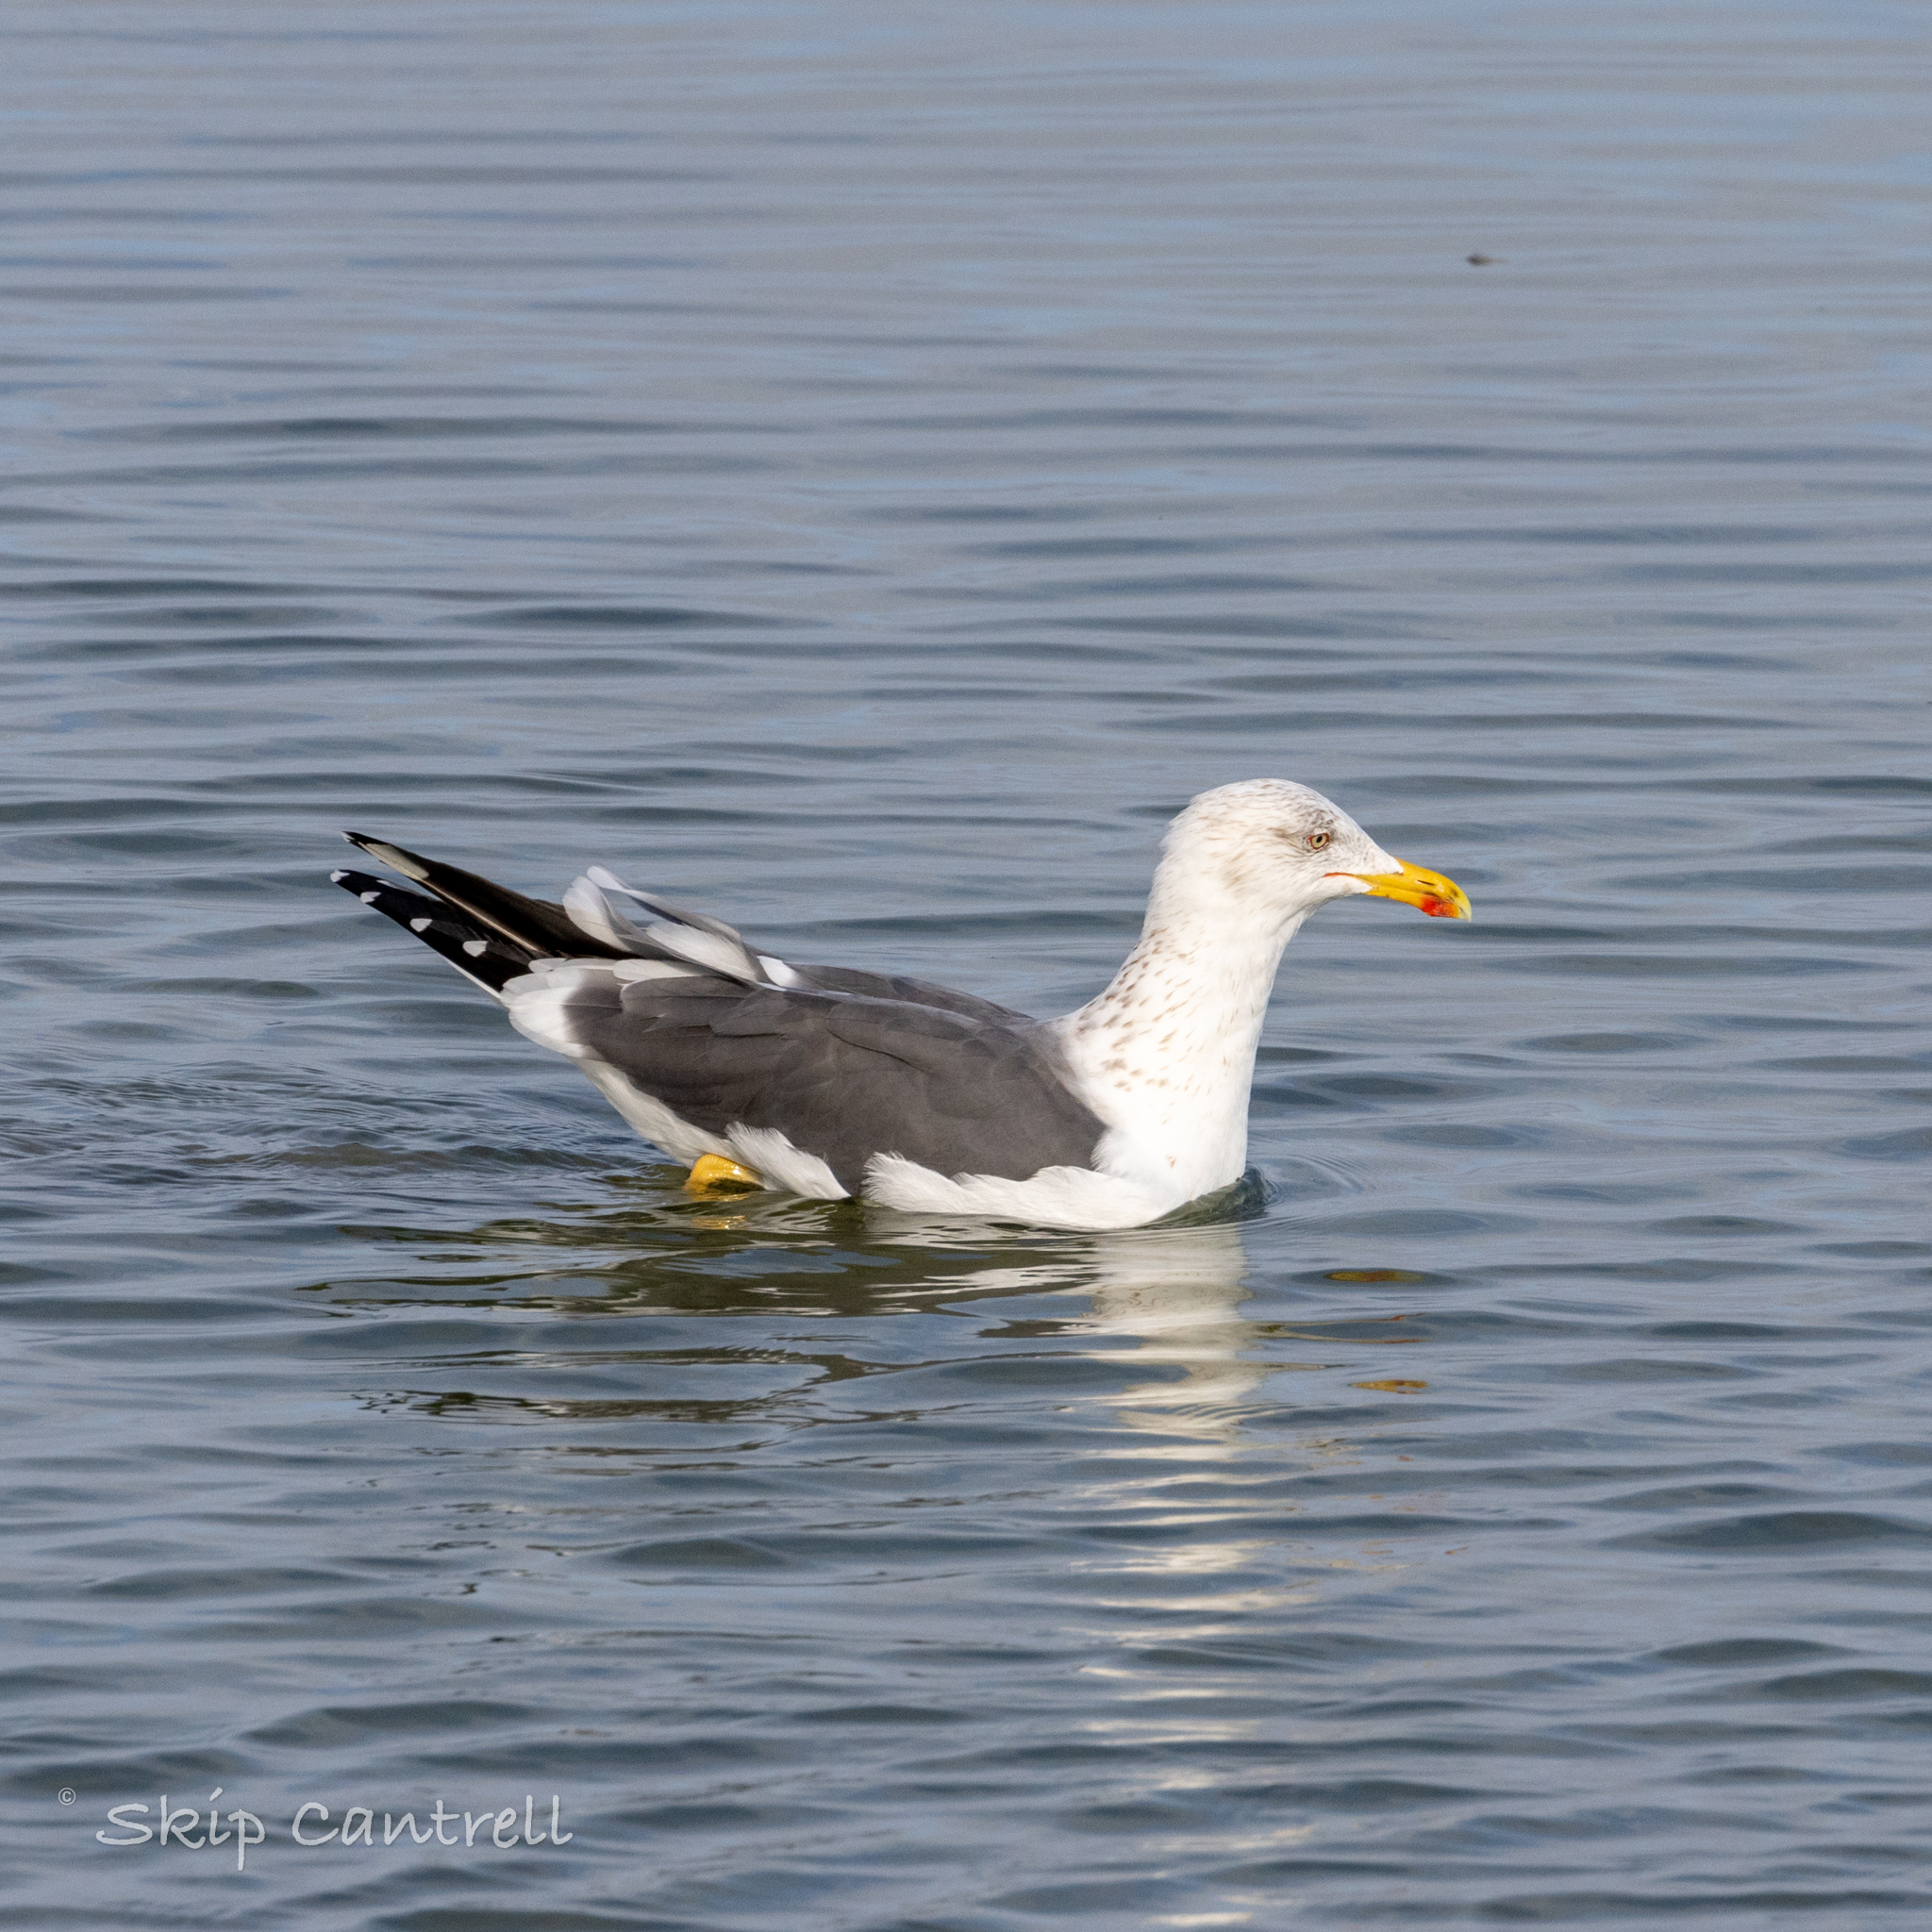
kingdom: Animalia
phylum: Chordata
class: Aves
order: Charadriiformes
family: Laridae
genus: Larus
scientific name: Larus fuscus
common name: Lesser black-backed gull
